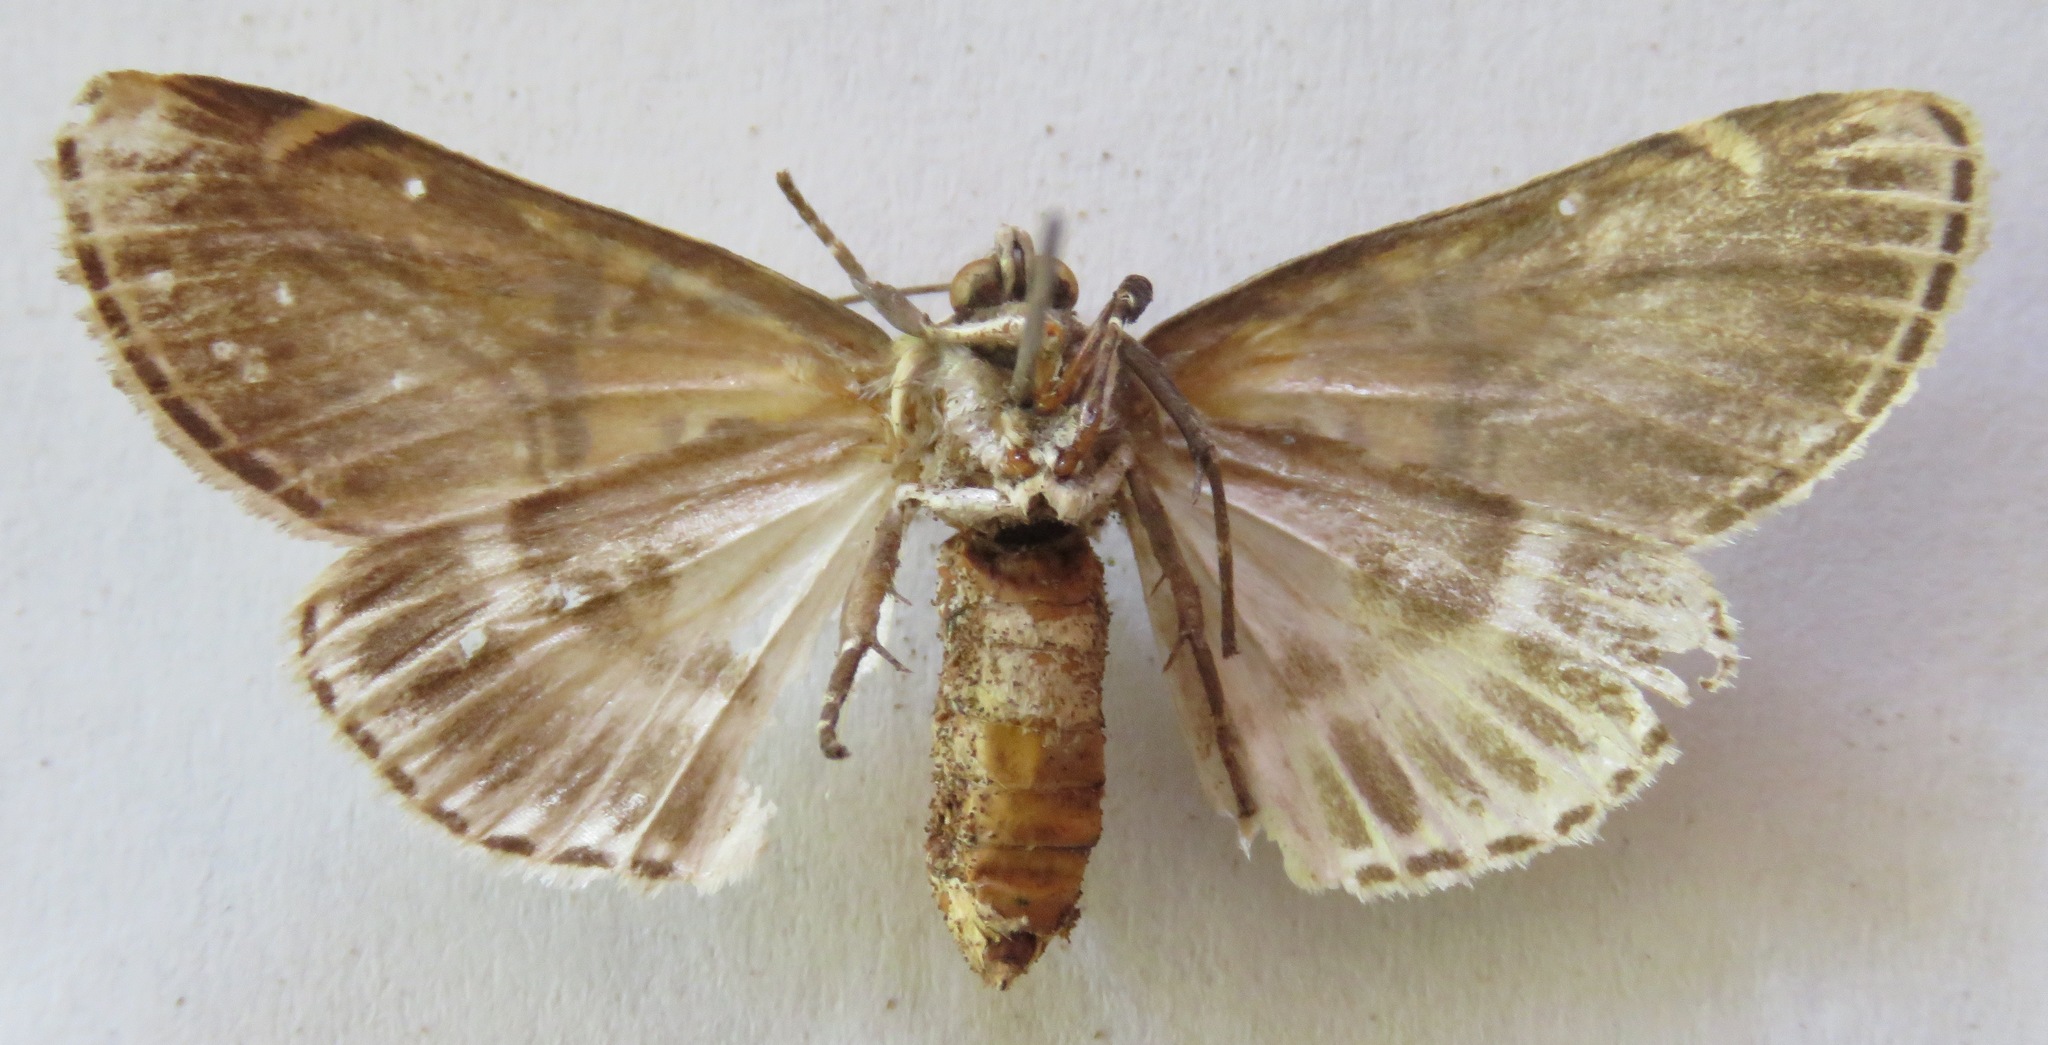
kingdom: Animalia
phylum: Arthropoda
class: Insecta
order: Lepidoptera
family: Erebidae
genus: Diphthera
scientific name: Diphthera festiva
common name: Hieroglyphic moth
